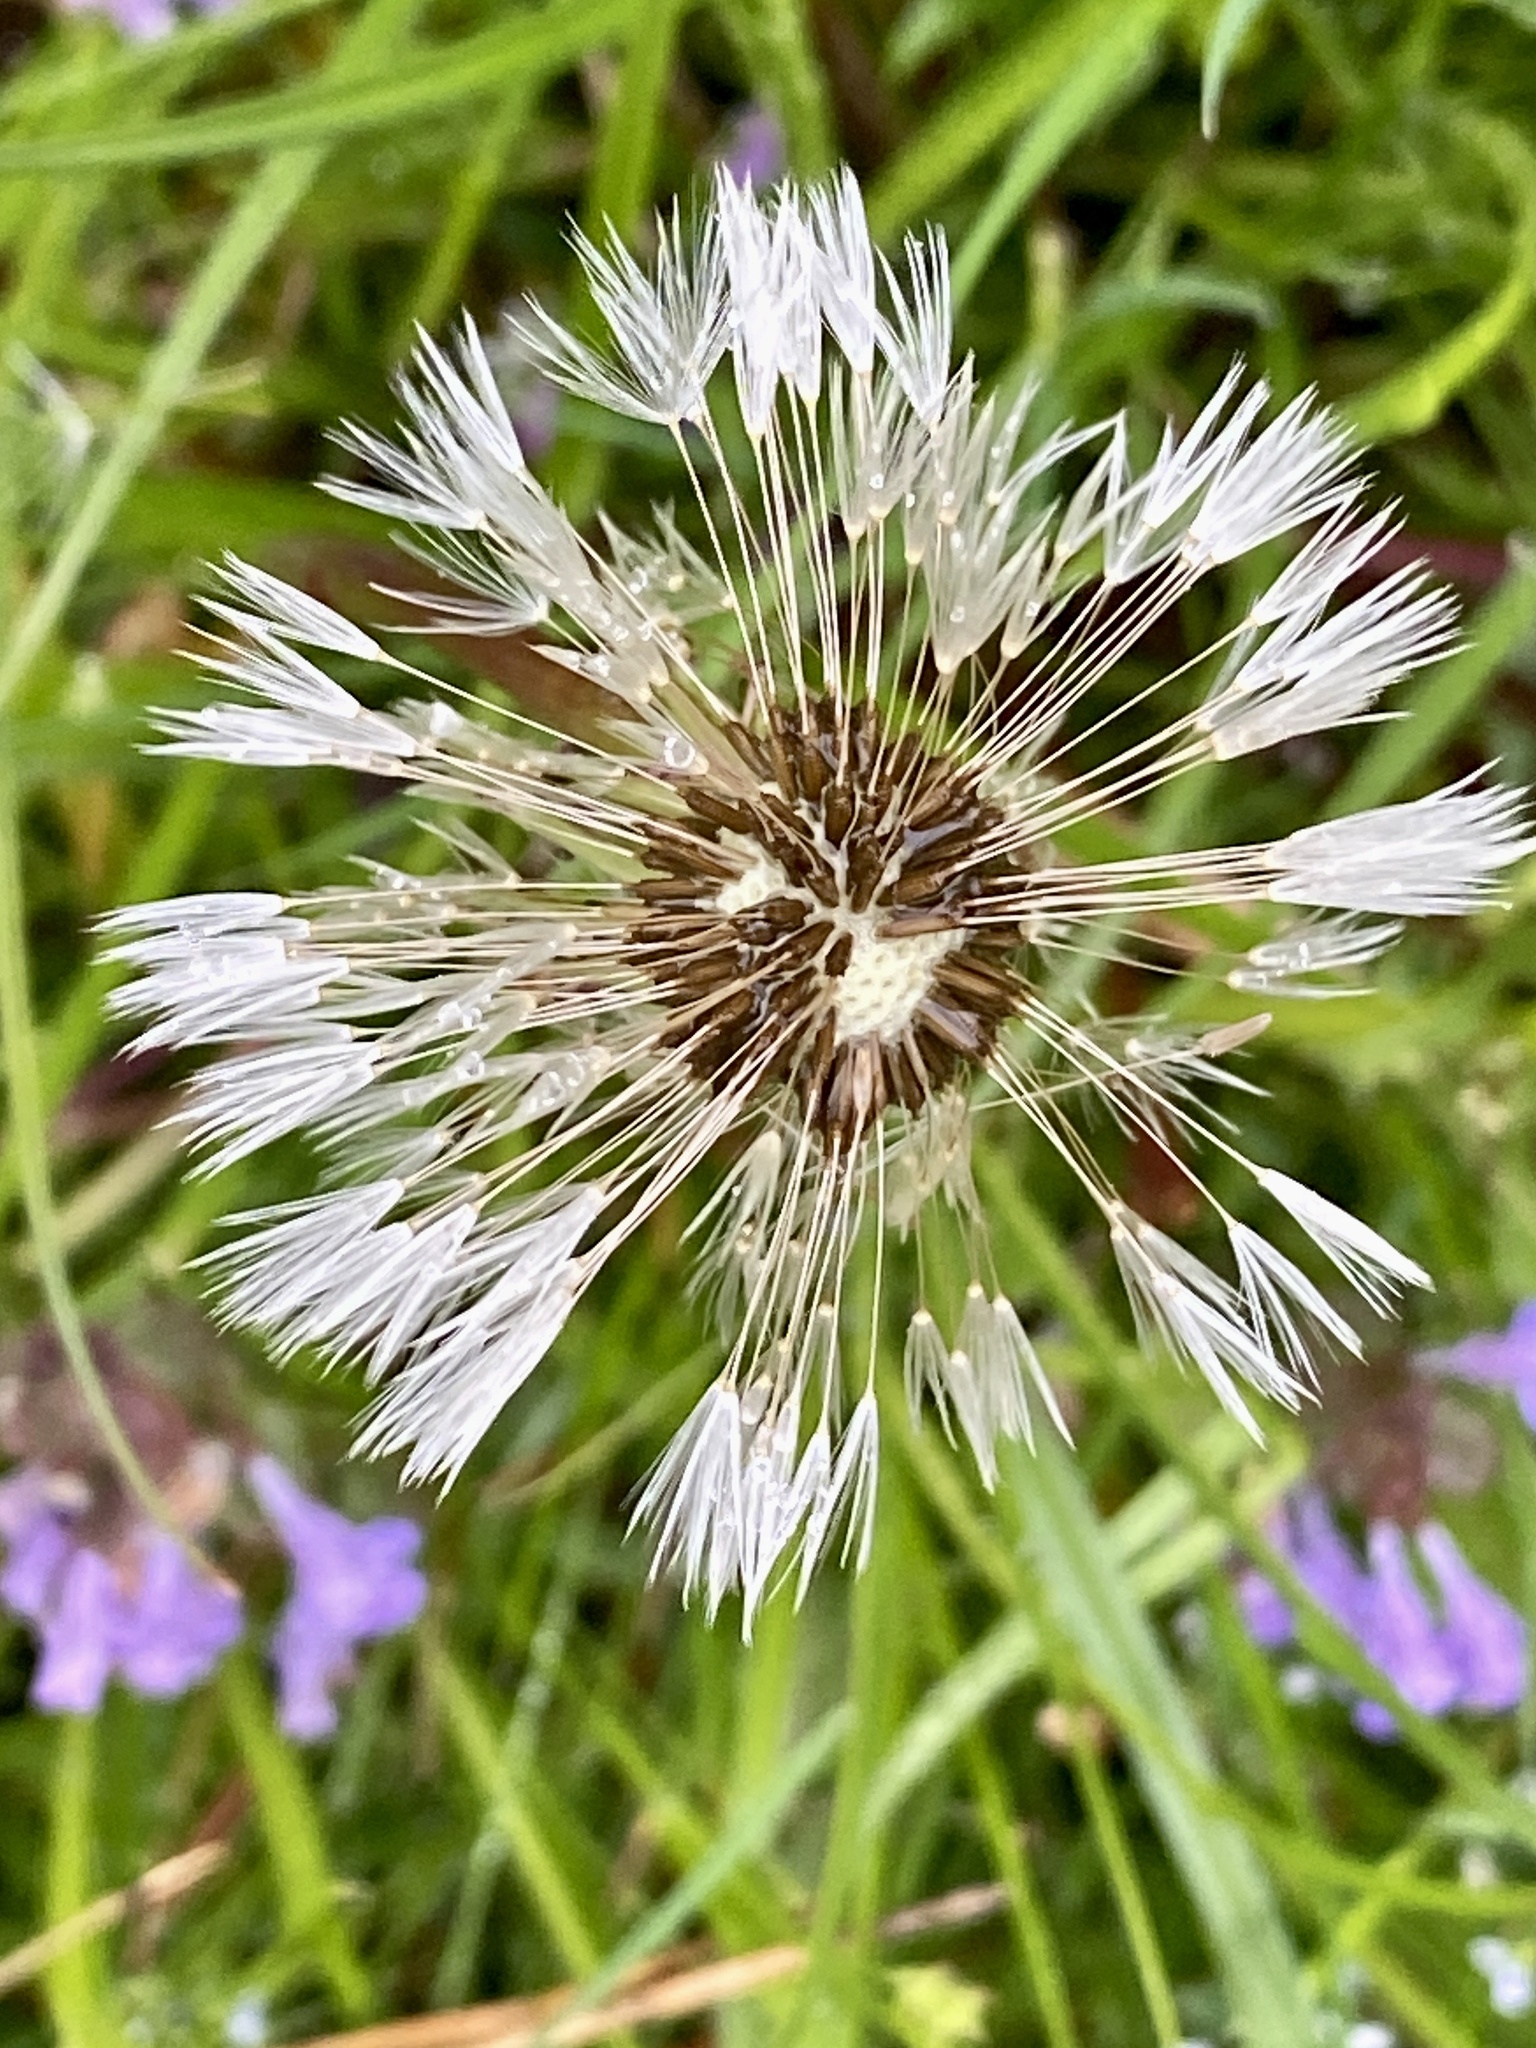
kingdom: Plantae
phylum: Tracheophyta
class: Magnoliopsida
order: Asterales
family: Asteraceae
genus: Taraxacum
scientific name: Taraxacum officinale
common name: Common dandelion
